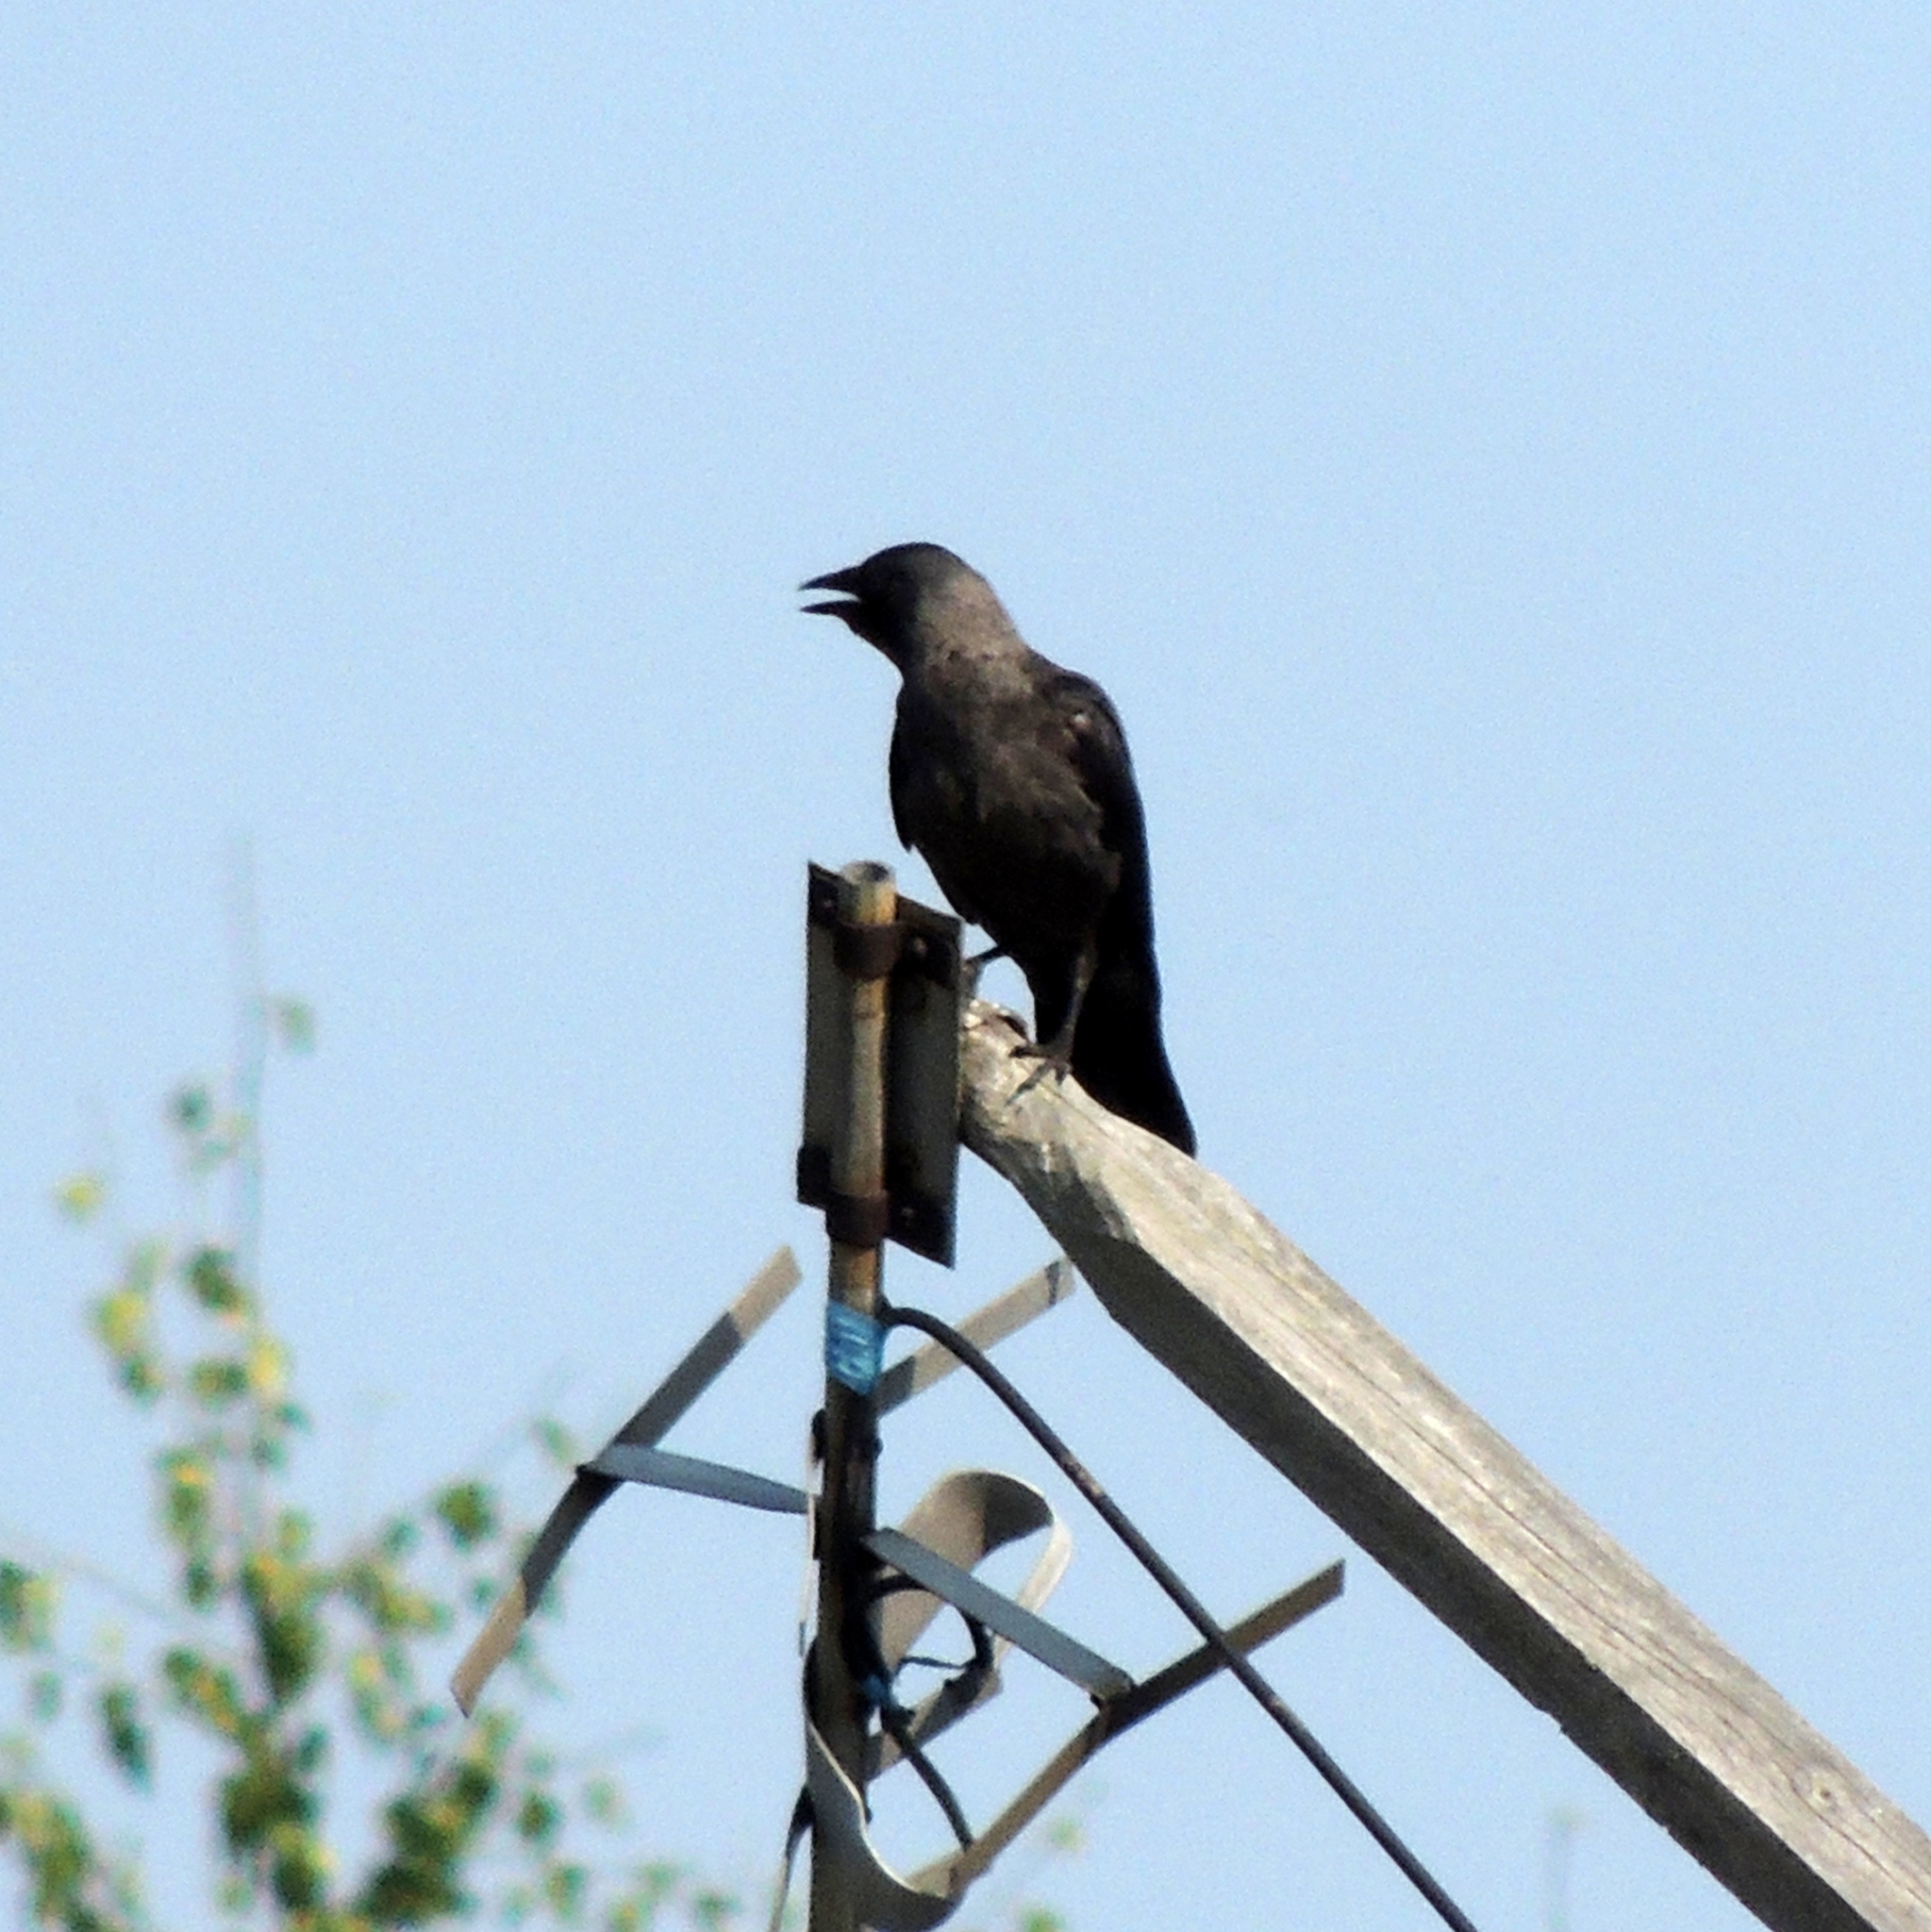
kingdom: Animalia
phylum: Chordata
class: Aves
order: Passeriformes
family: Corvidae
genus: Coloeus
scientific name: Coloeus monedula
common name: Western jackdaw
